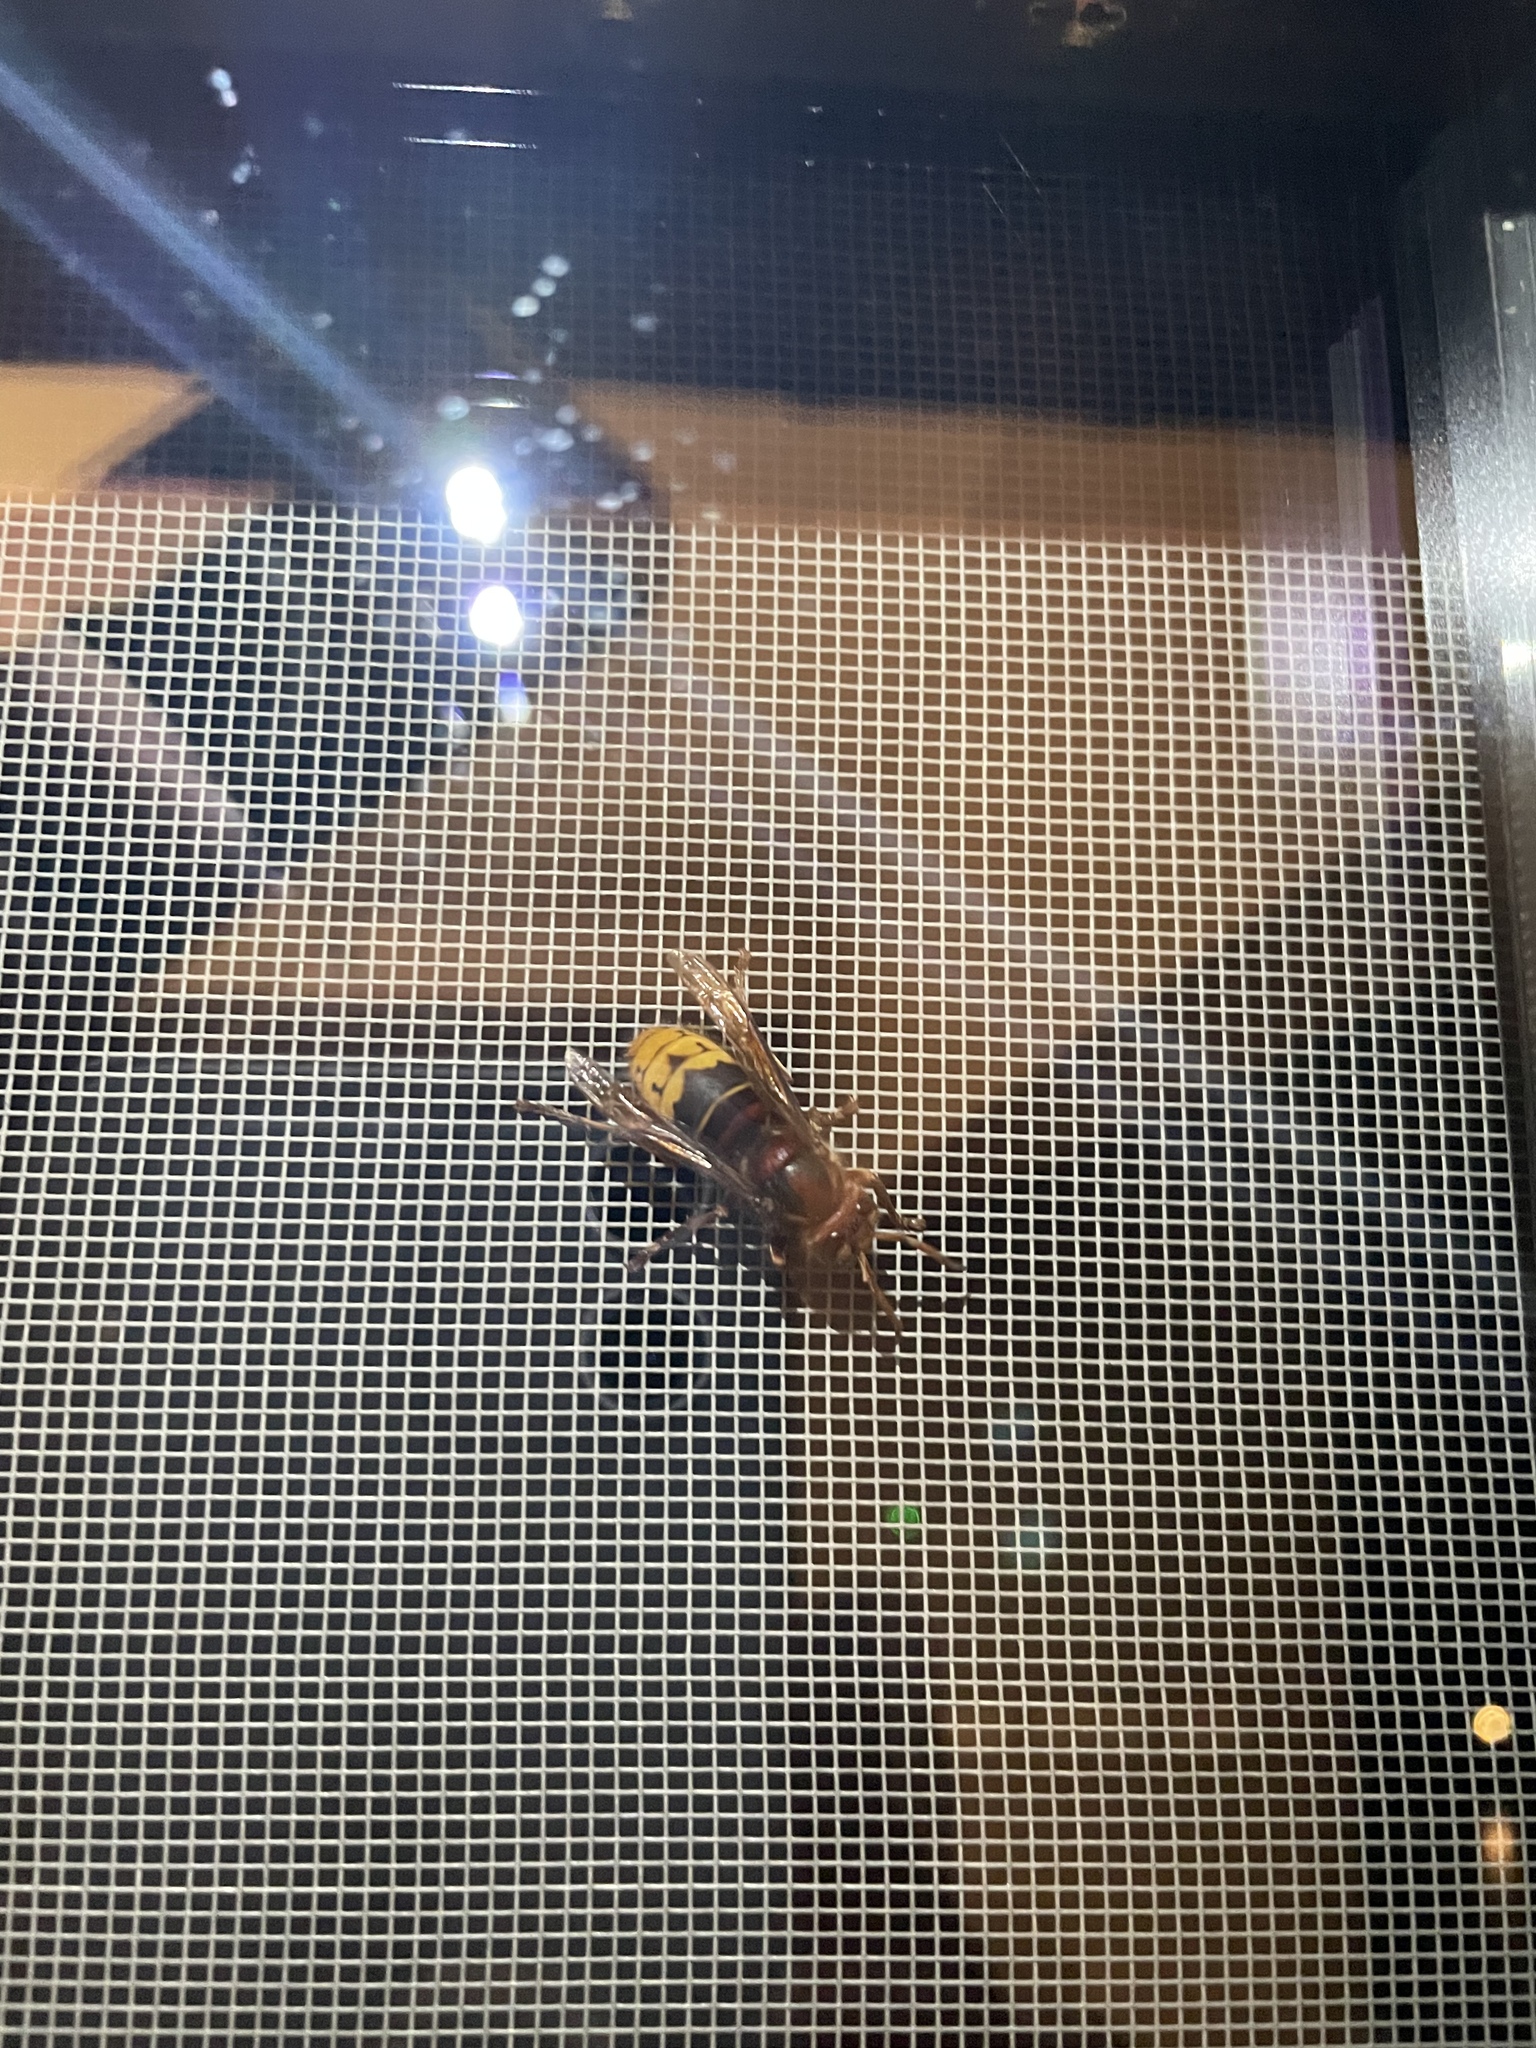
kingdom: Animalia
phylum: Arthropoda
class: Insecta
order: Hymenoptera
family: Vespidae
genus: Vespa
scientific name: Vespa crabro
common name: Hornet
